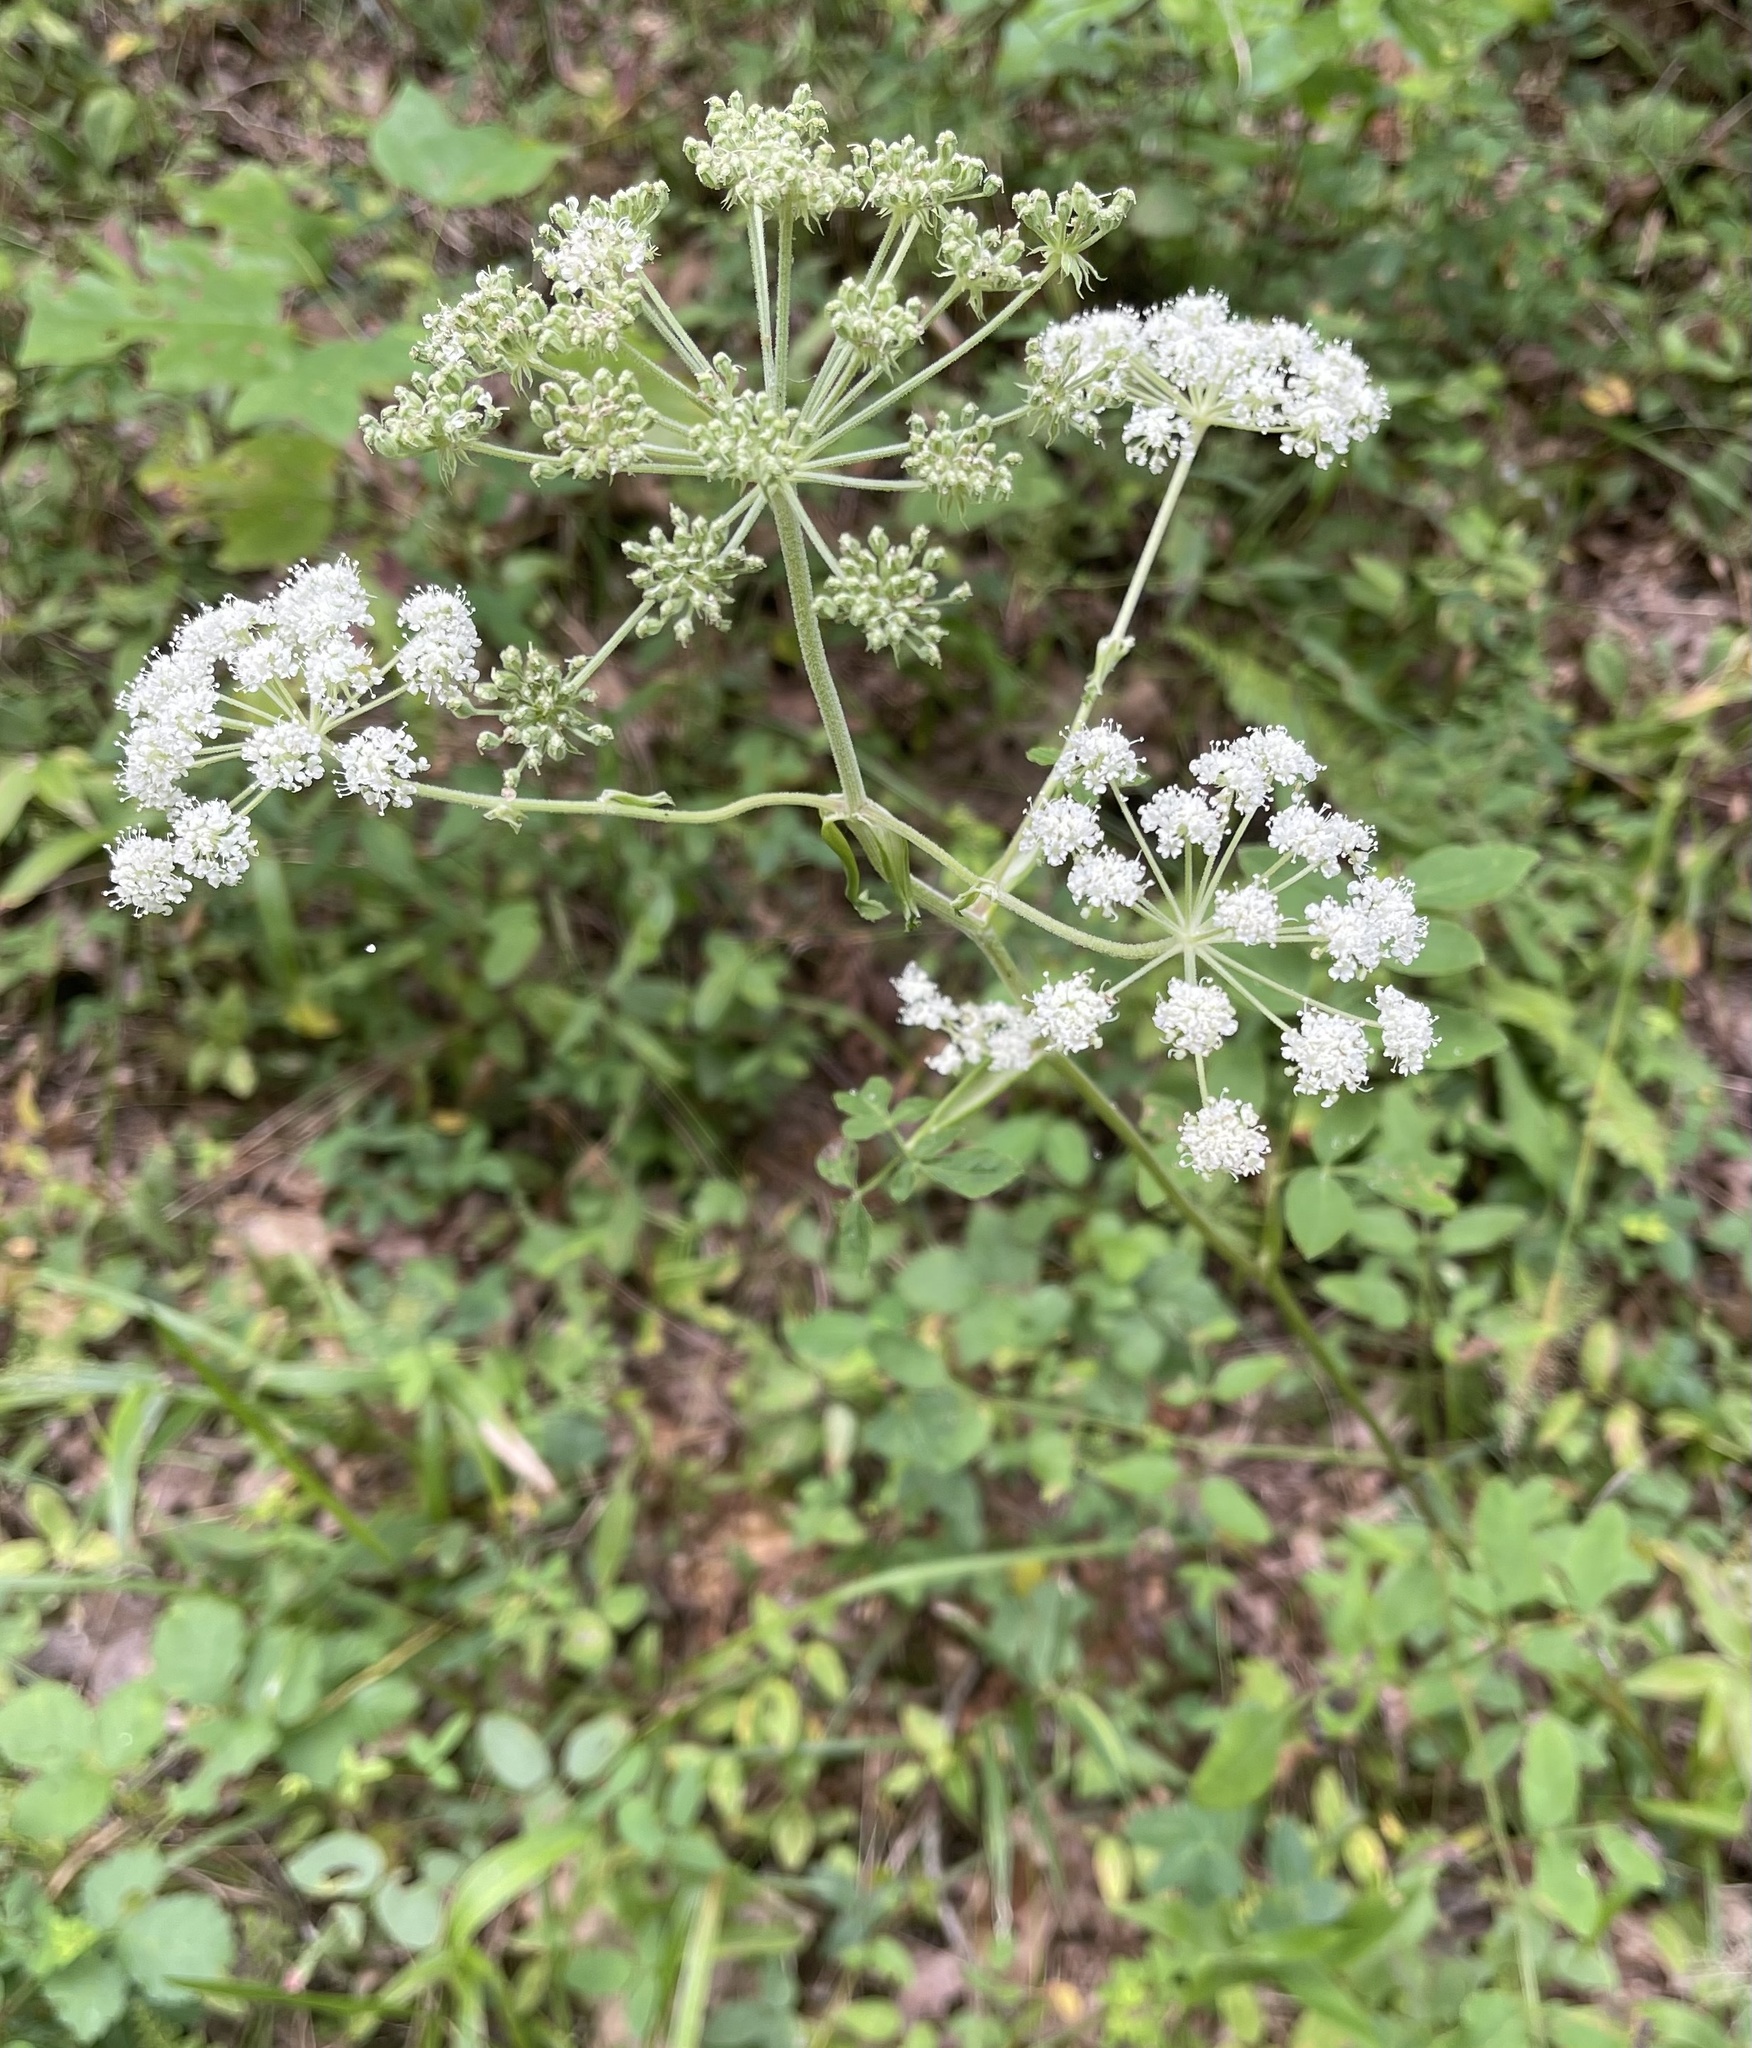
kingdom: Plantae
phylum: Tracheophyta
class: Magnoliopsida
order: Apiales
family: Apiaceae
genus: Angelica
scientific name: Angelica venenosa
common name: Hairy angelica
